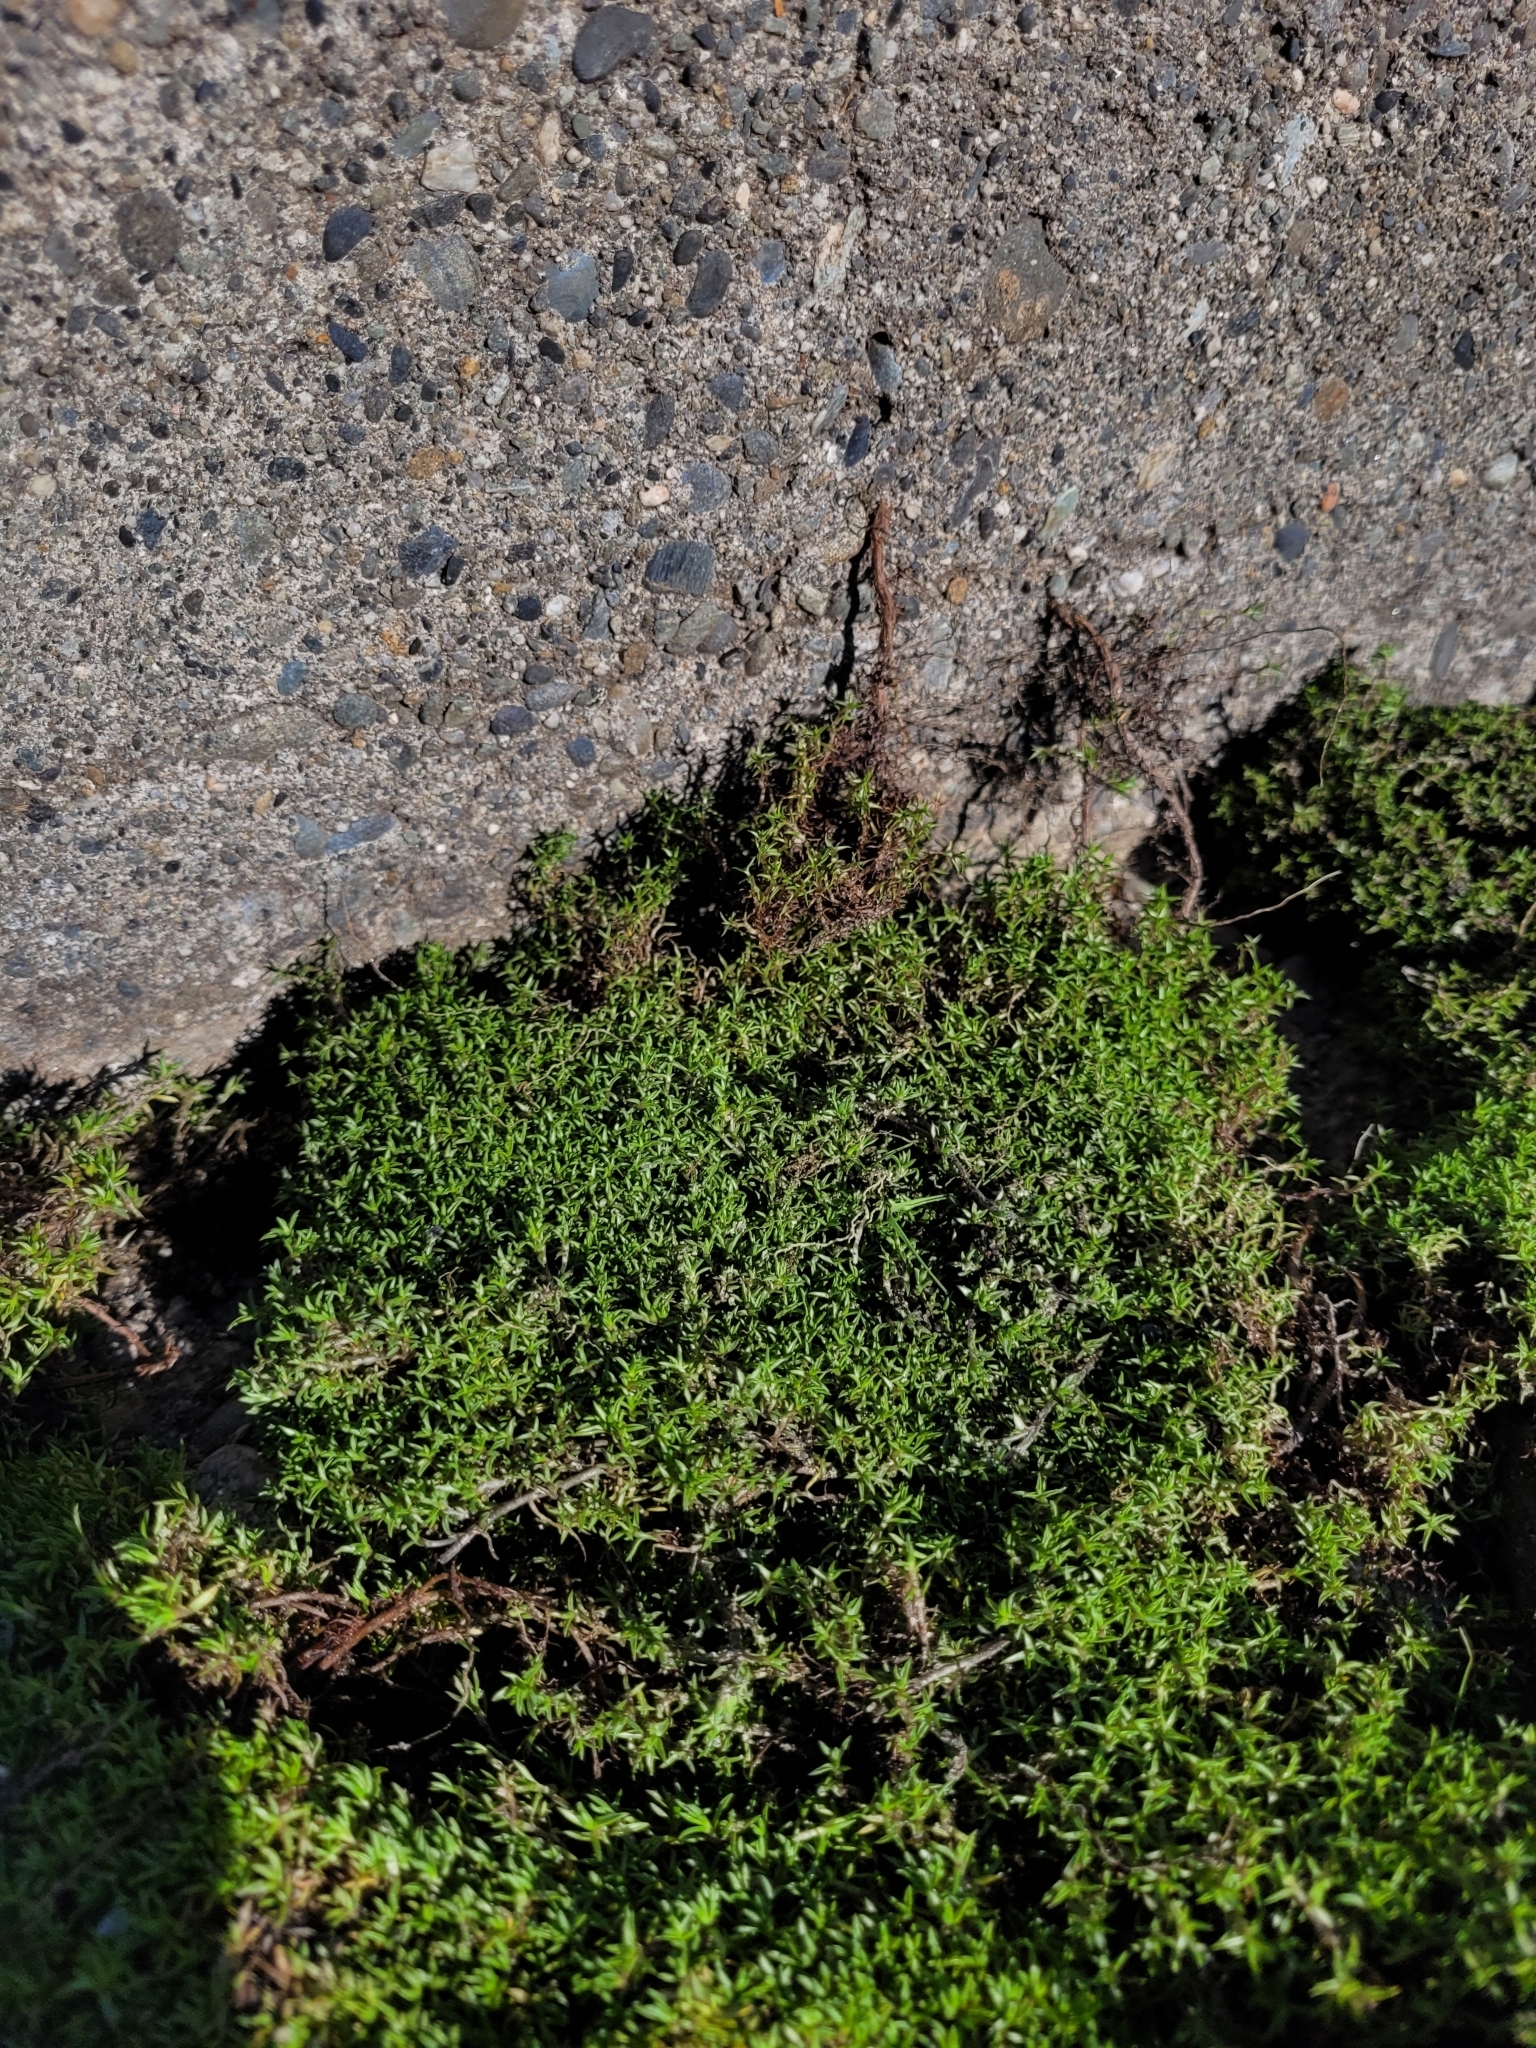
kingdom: Plantae
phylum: Tracheophyta
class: Magnoliopsida
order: Asterales
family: Asteraceae
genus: Raoulia
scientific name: Raoulia tenuicaulis
